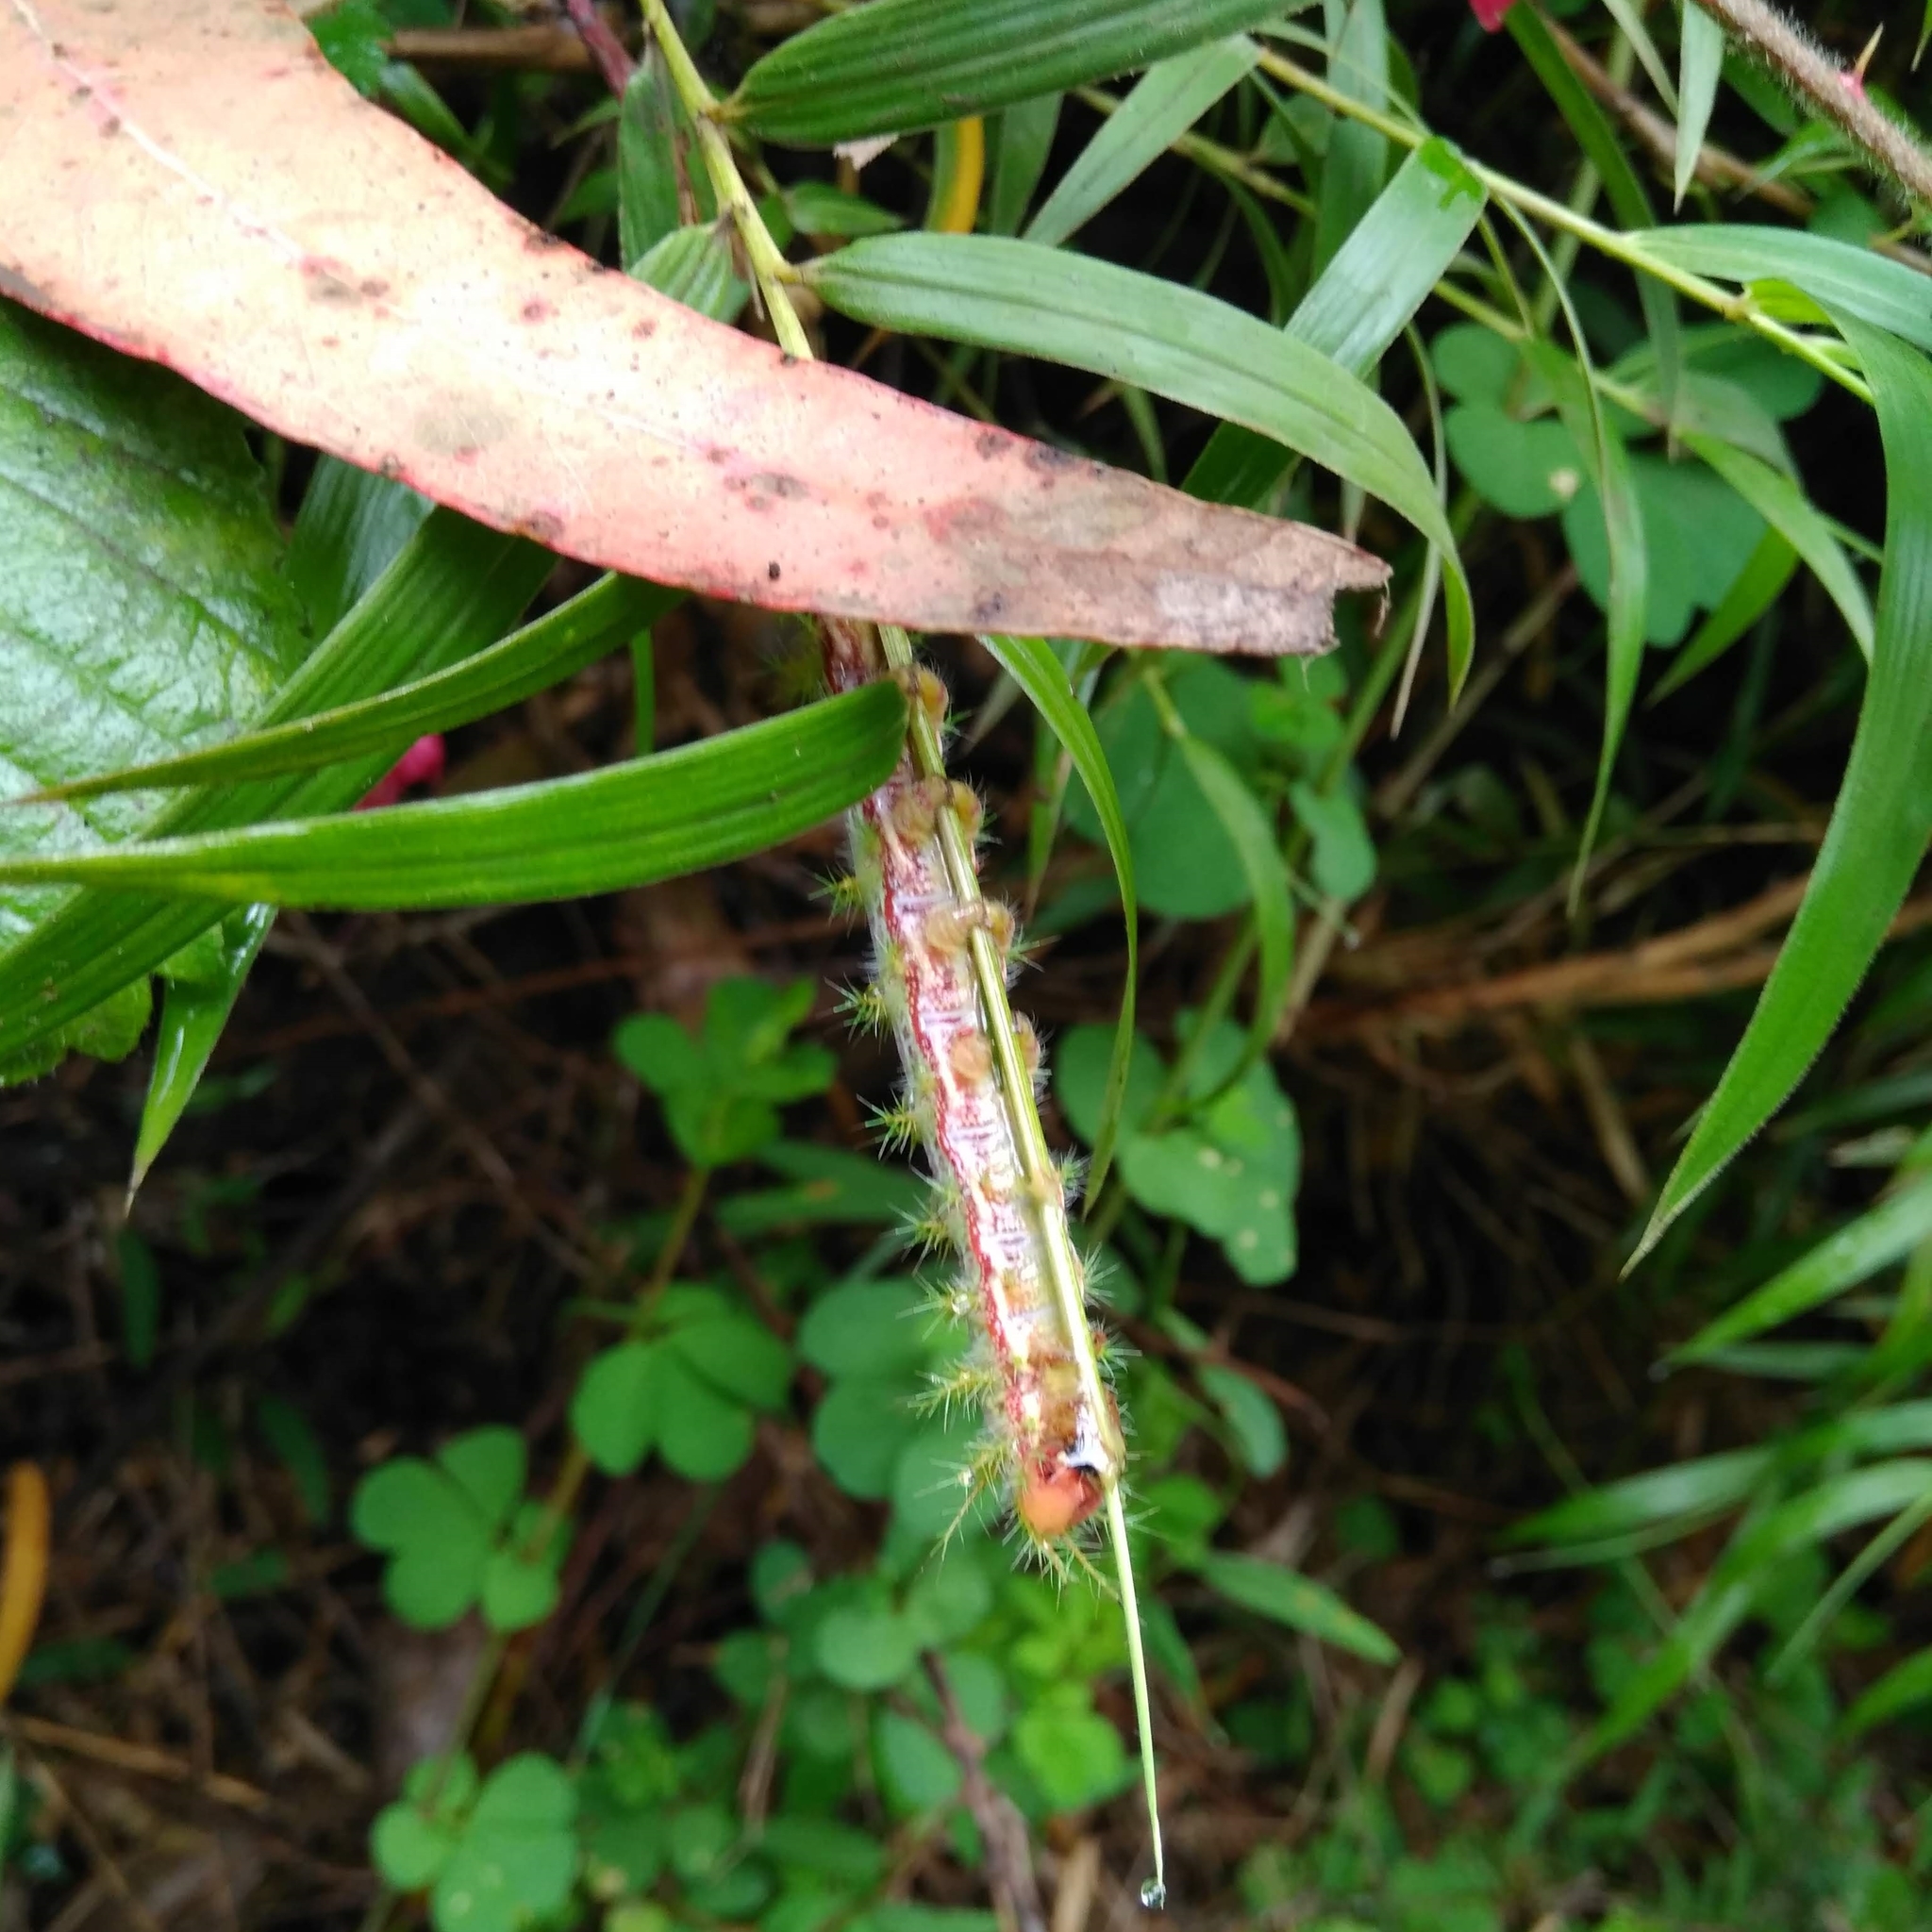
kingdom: Animalia
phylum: Arthropoda
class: Insecta
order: Lepidoptera
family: Saturniidae
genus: Ormiscodes
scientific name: Ormiscodes amphinome
